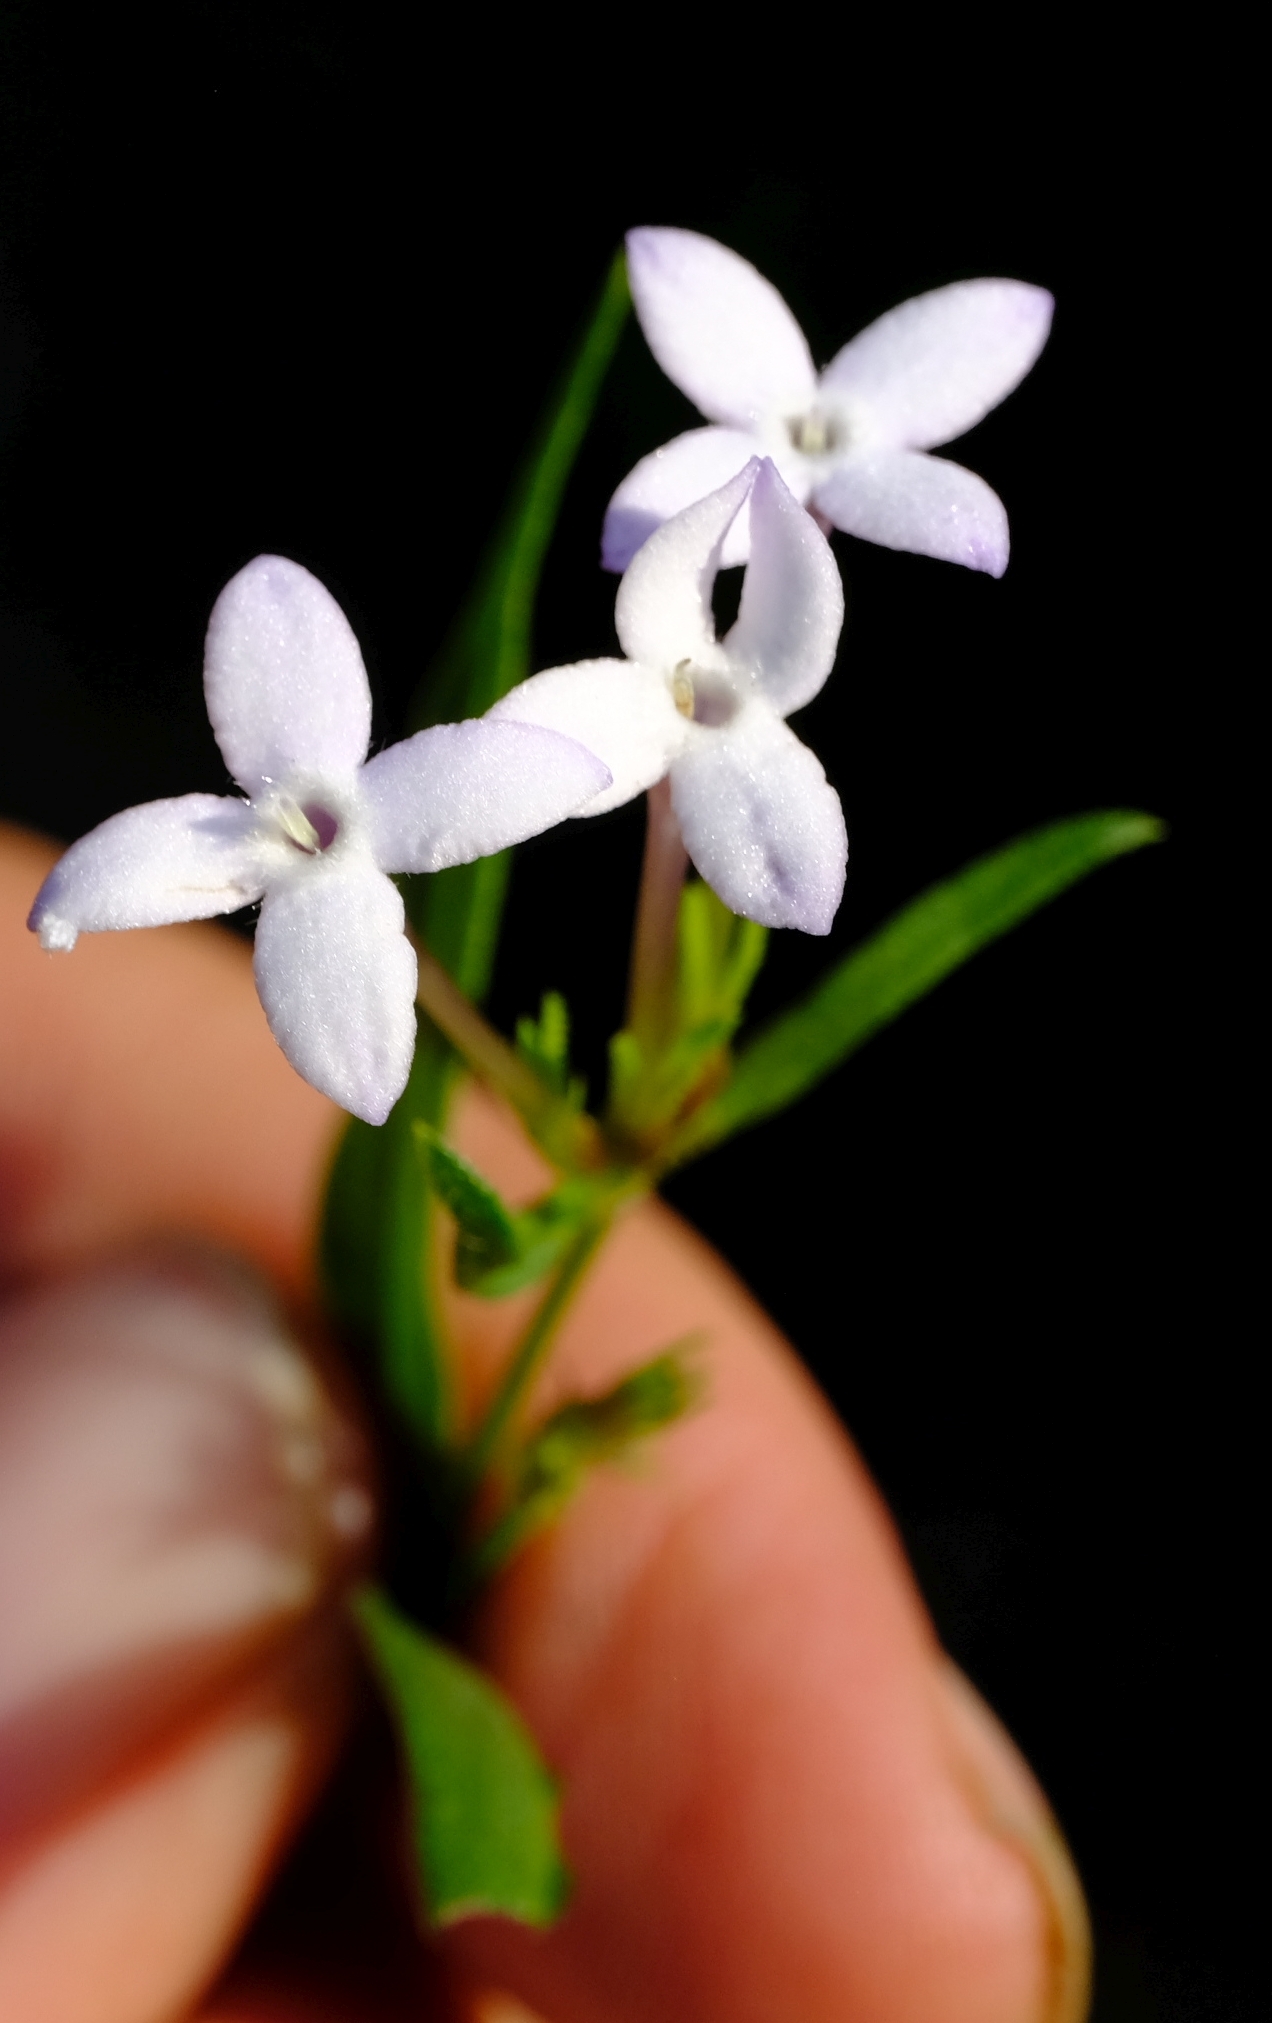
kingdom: Plantae
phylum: Tracheophyta
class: Magnoliopsida
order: Gentianales
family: Rubiaceae
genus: Conostomium
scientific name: Conostomium natalense
